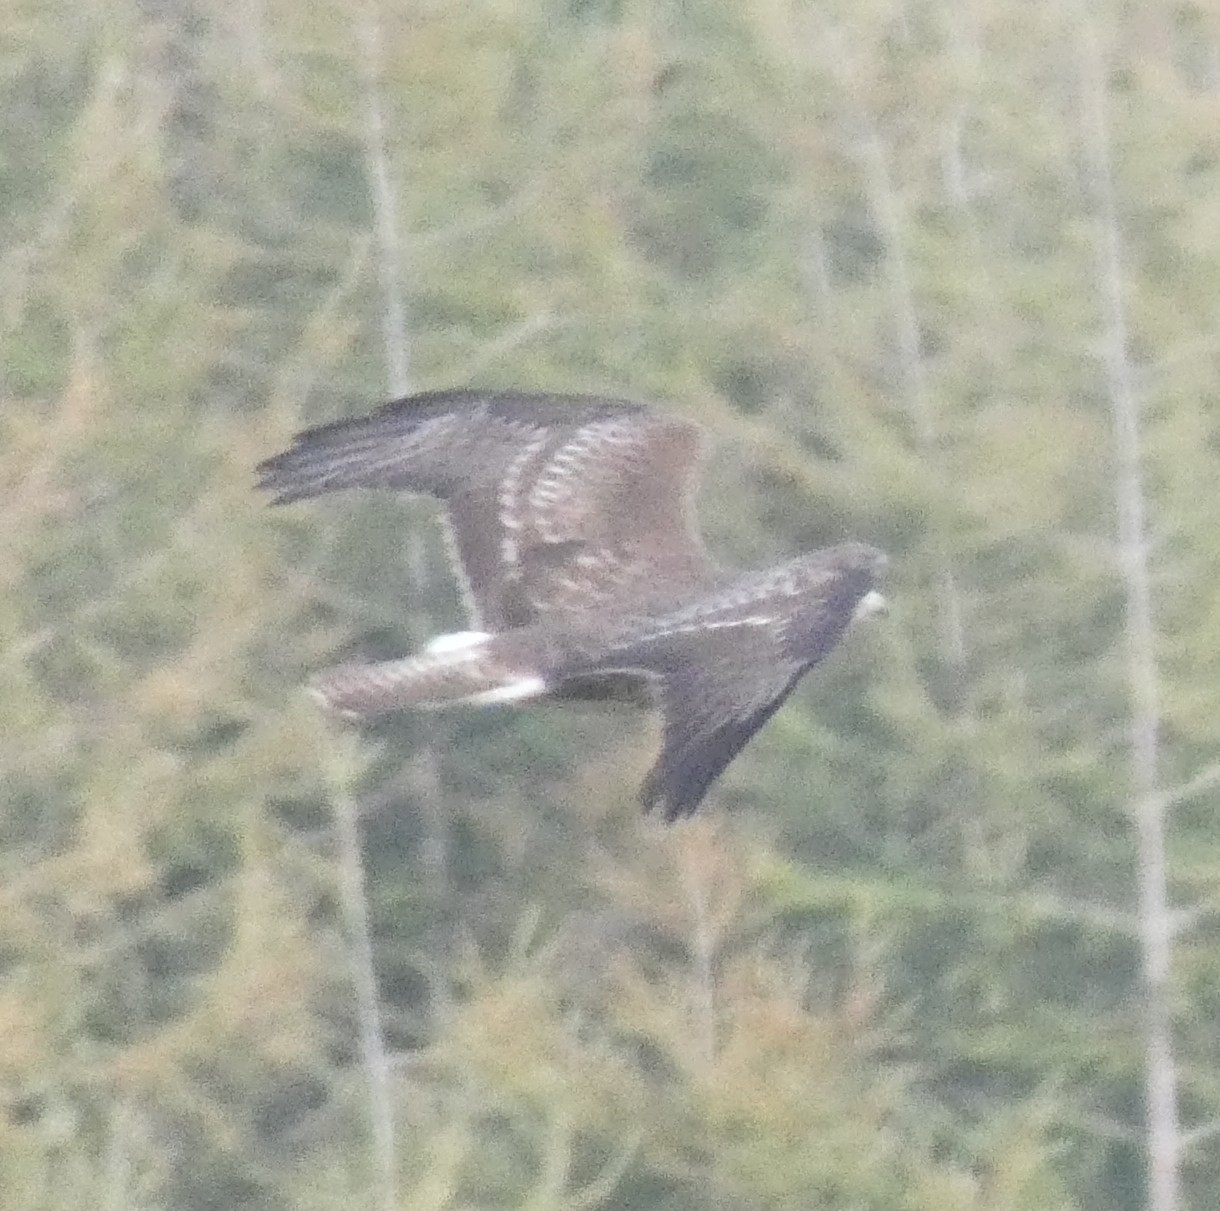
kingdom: Animalia
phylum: Chordata
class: Aves
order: Accipitriformes
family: Accipitridae
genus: Buteo
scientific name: Buteo buteo
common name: Common buzzard
